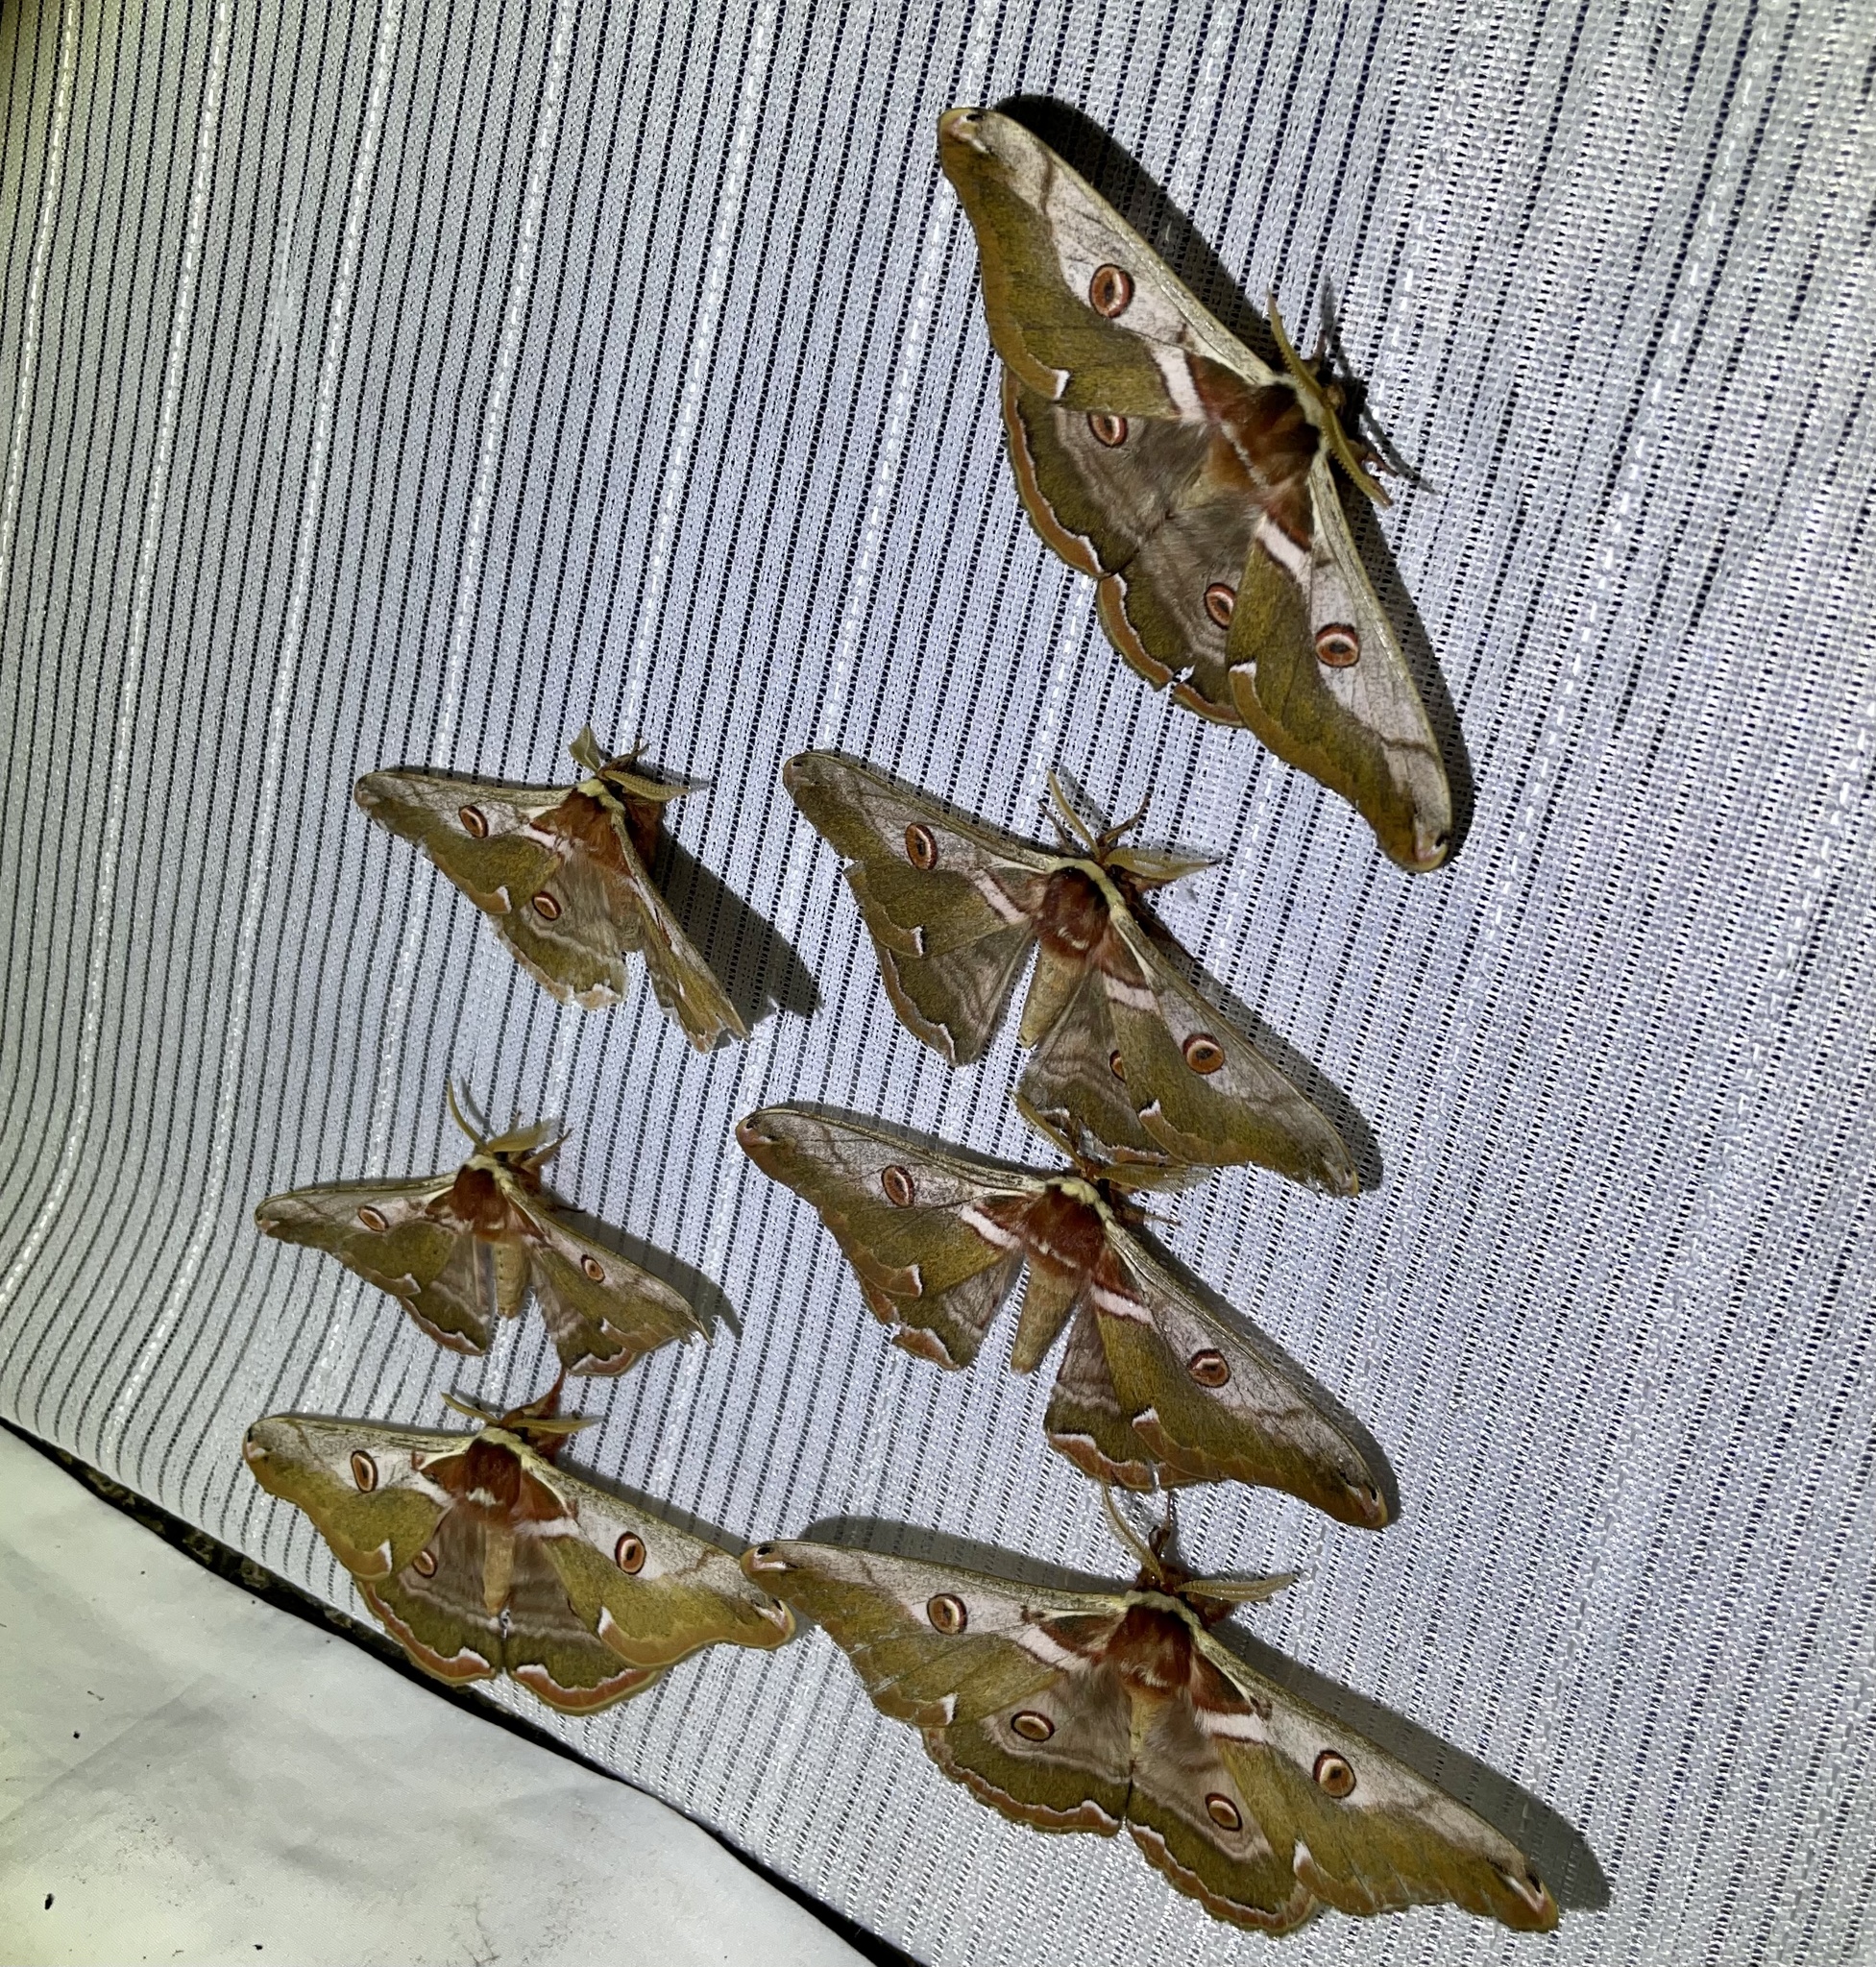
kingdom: Animalia
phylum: Arthropoda
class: Insecta
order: Lepidoptera
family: Saturniidae
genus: Saturnia
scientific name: Saturnia jonasii
